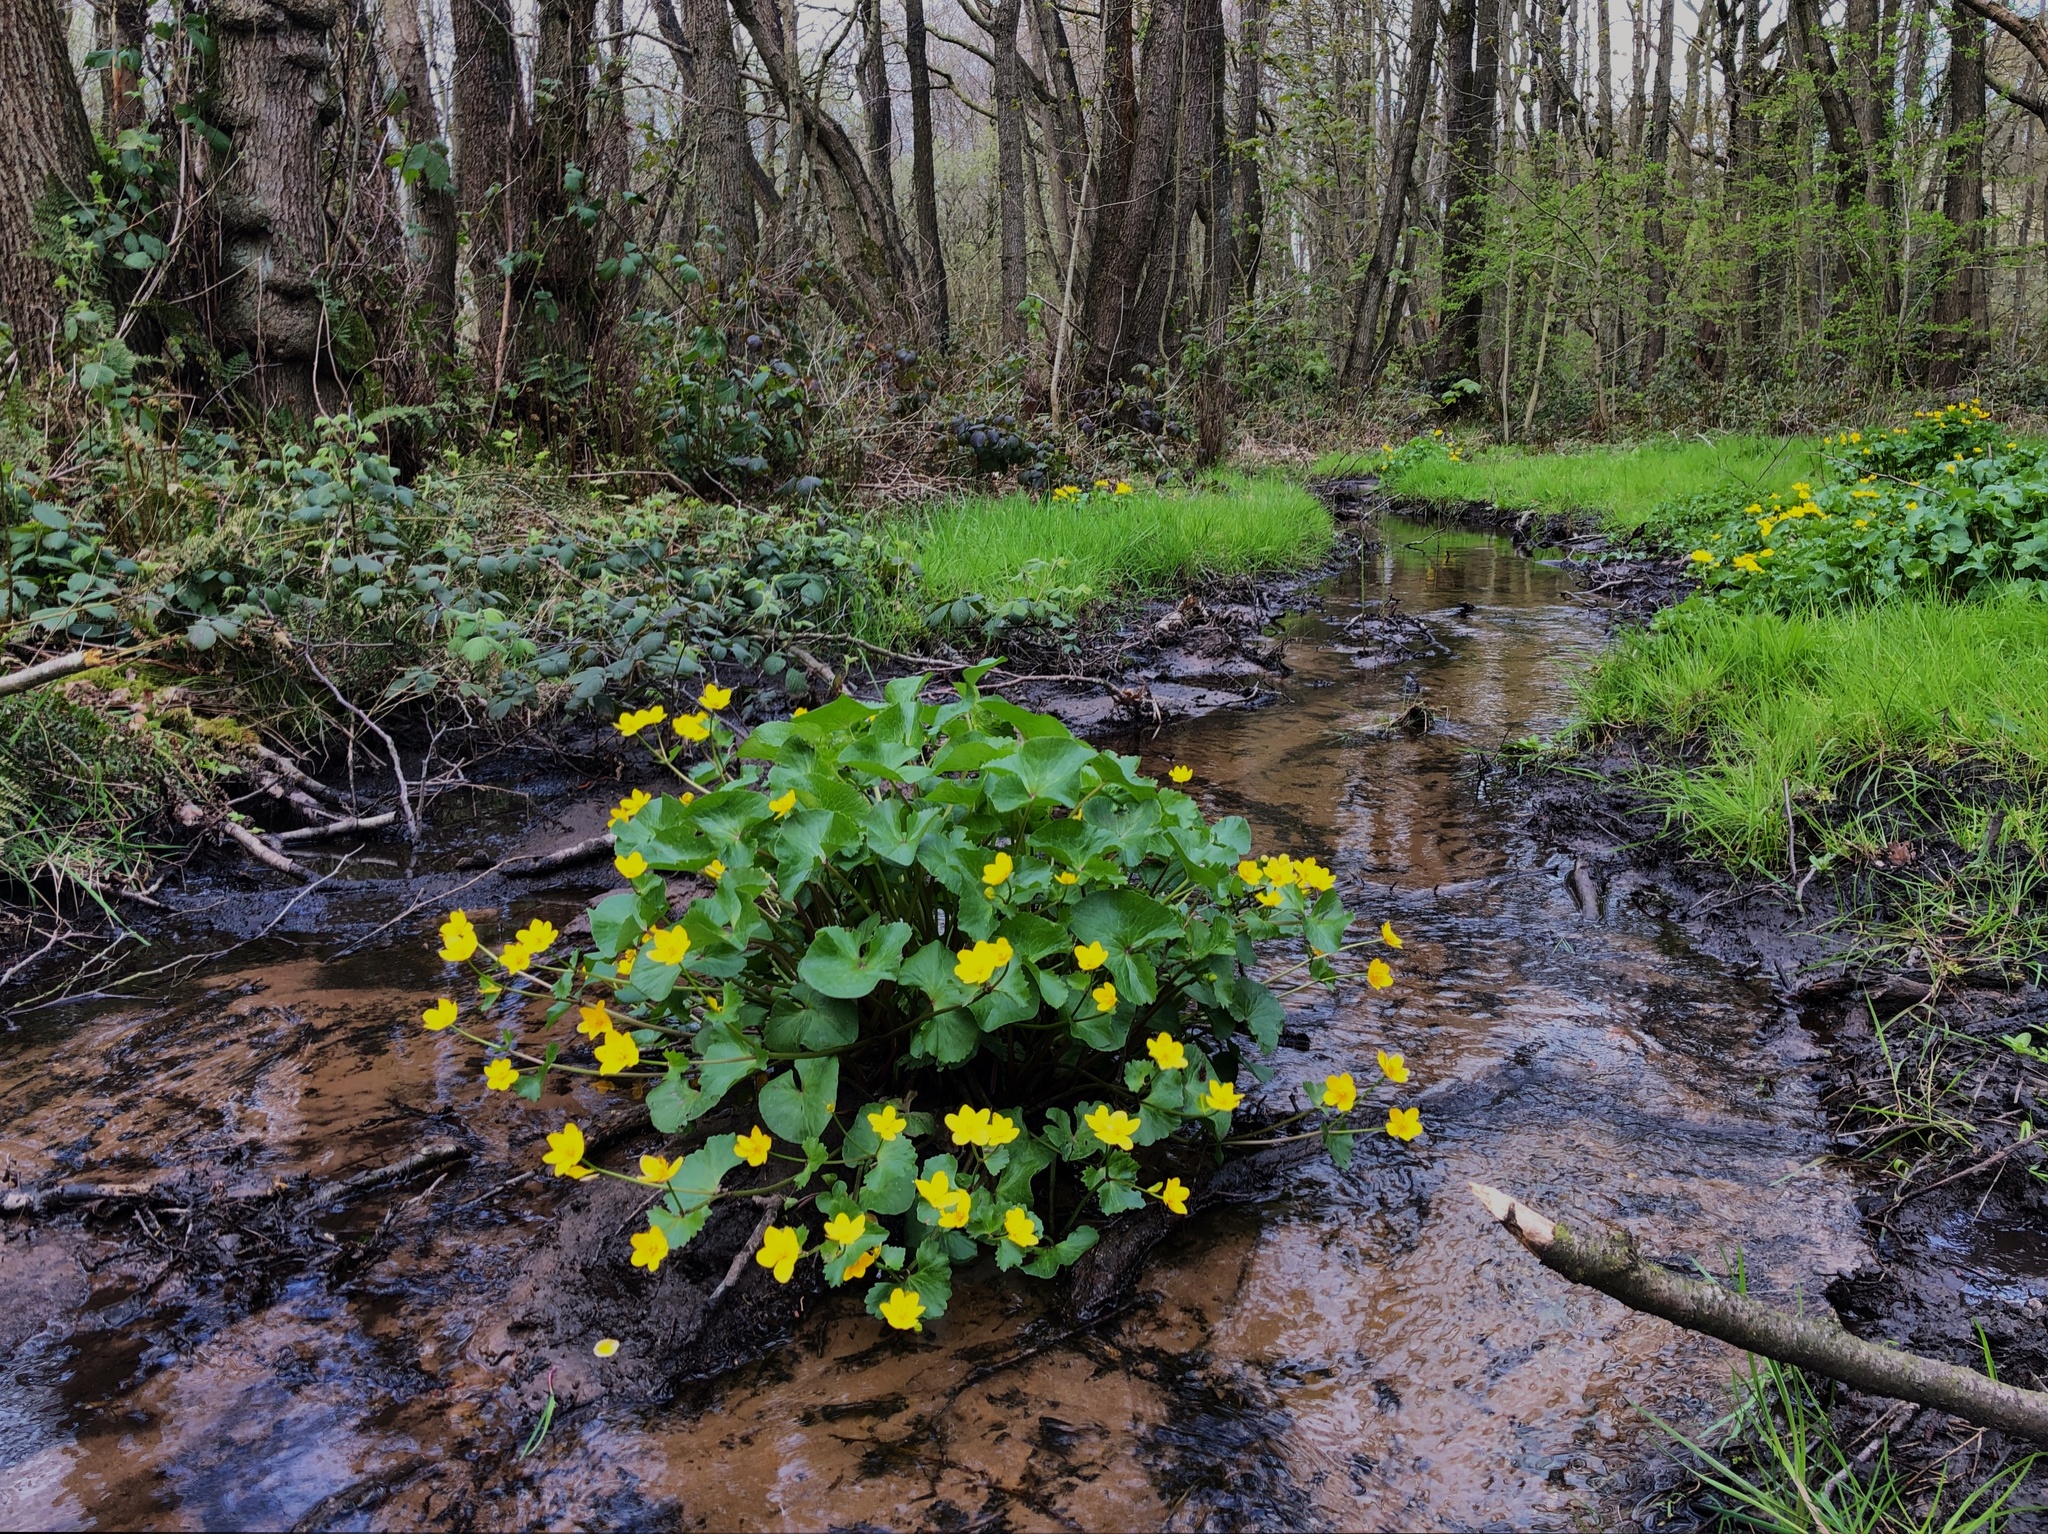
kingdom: Plantae
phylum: Tracheophyta
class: Magnoliopsida
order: Ranunculales
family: Ranunculaceae
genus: Caltha
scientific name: Caltha palustris
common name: Marsh marigold
